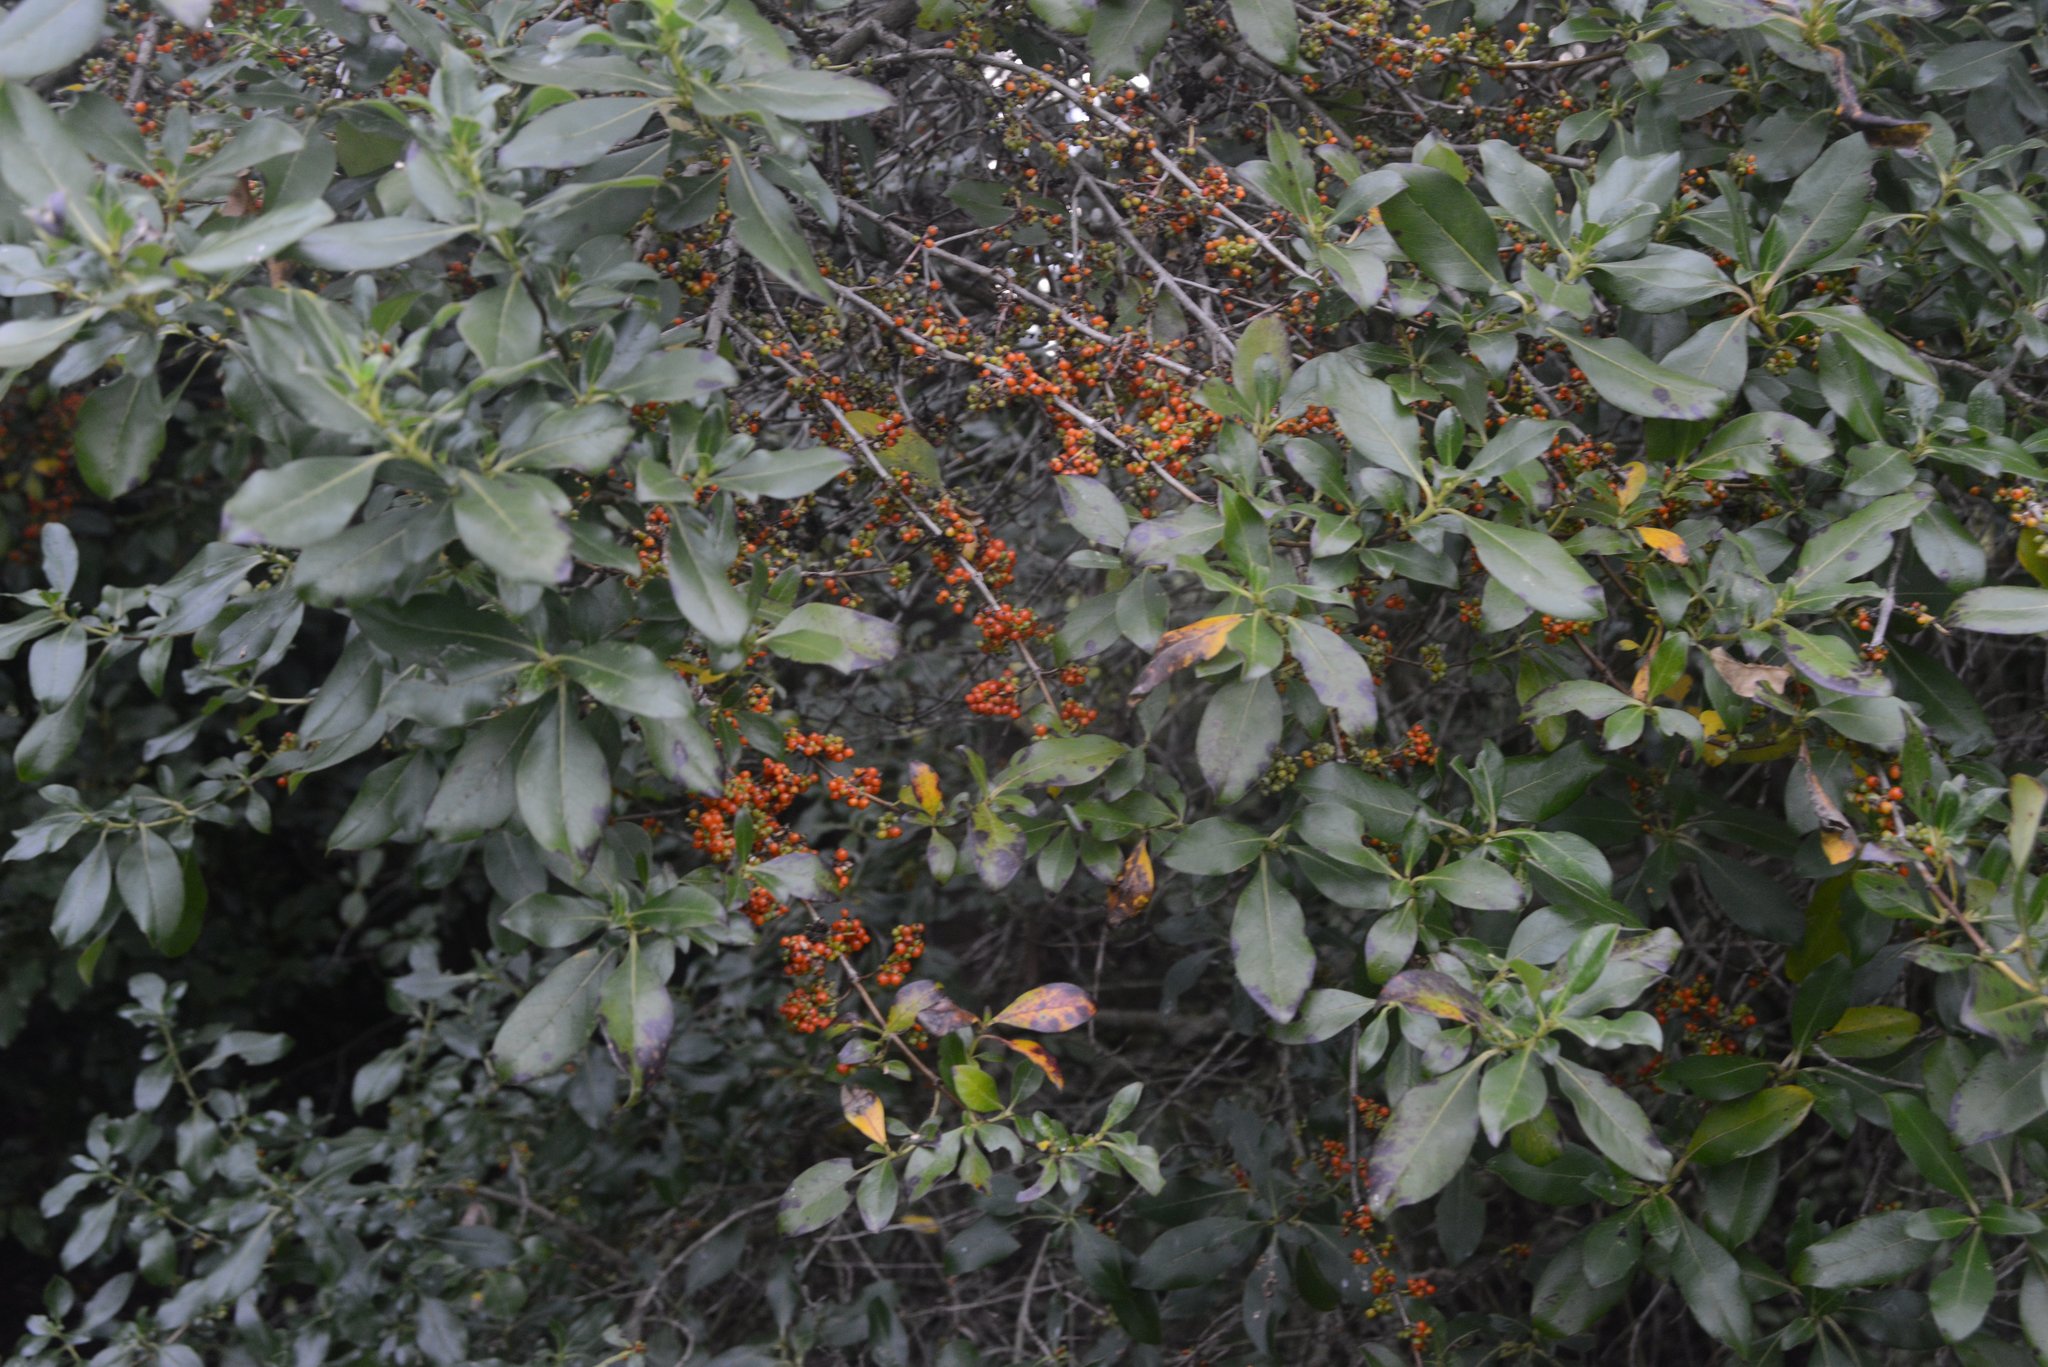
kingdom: Plantae
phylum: Tracheophyta
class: Magnoliopsida
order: Gentianales
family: Rubiaceae
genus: Coprosma
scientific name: Coprosma robusta
